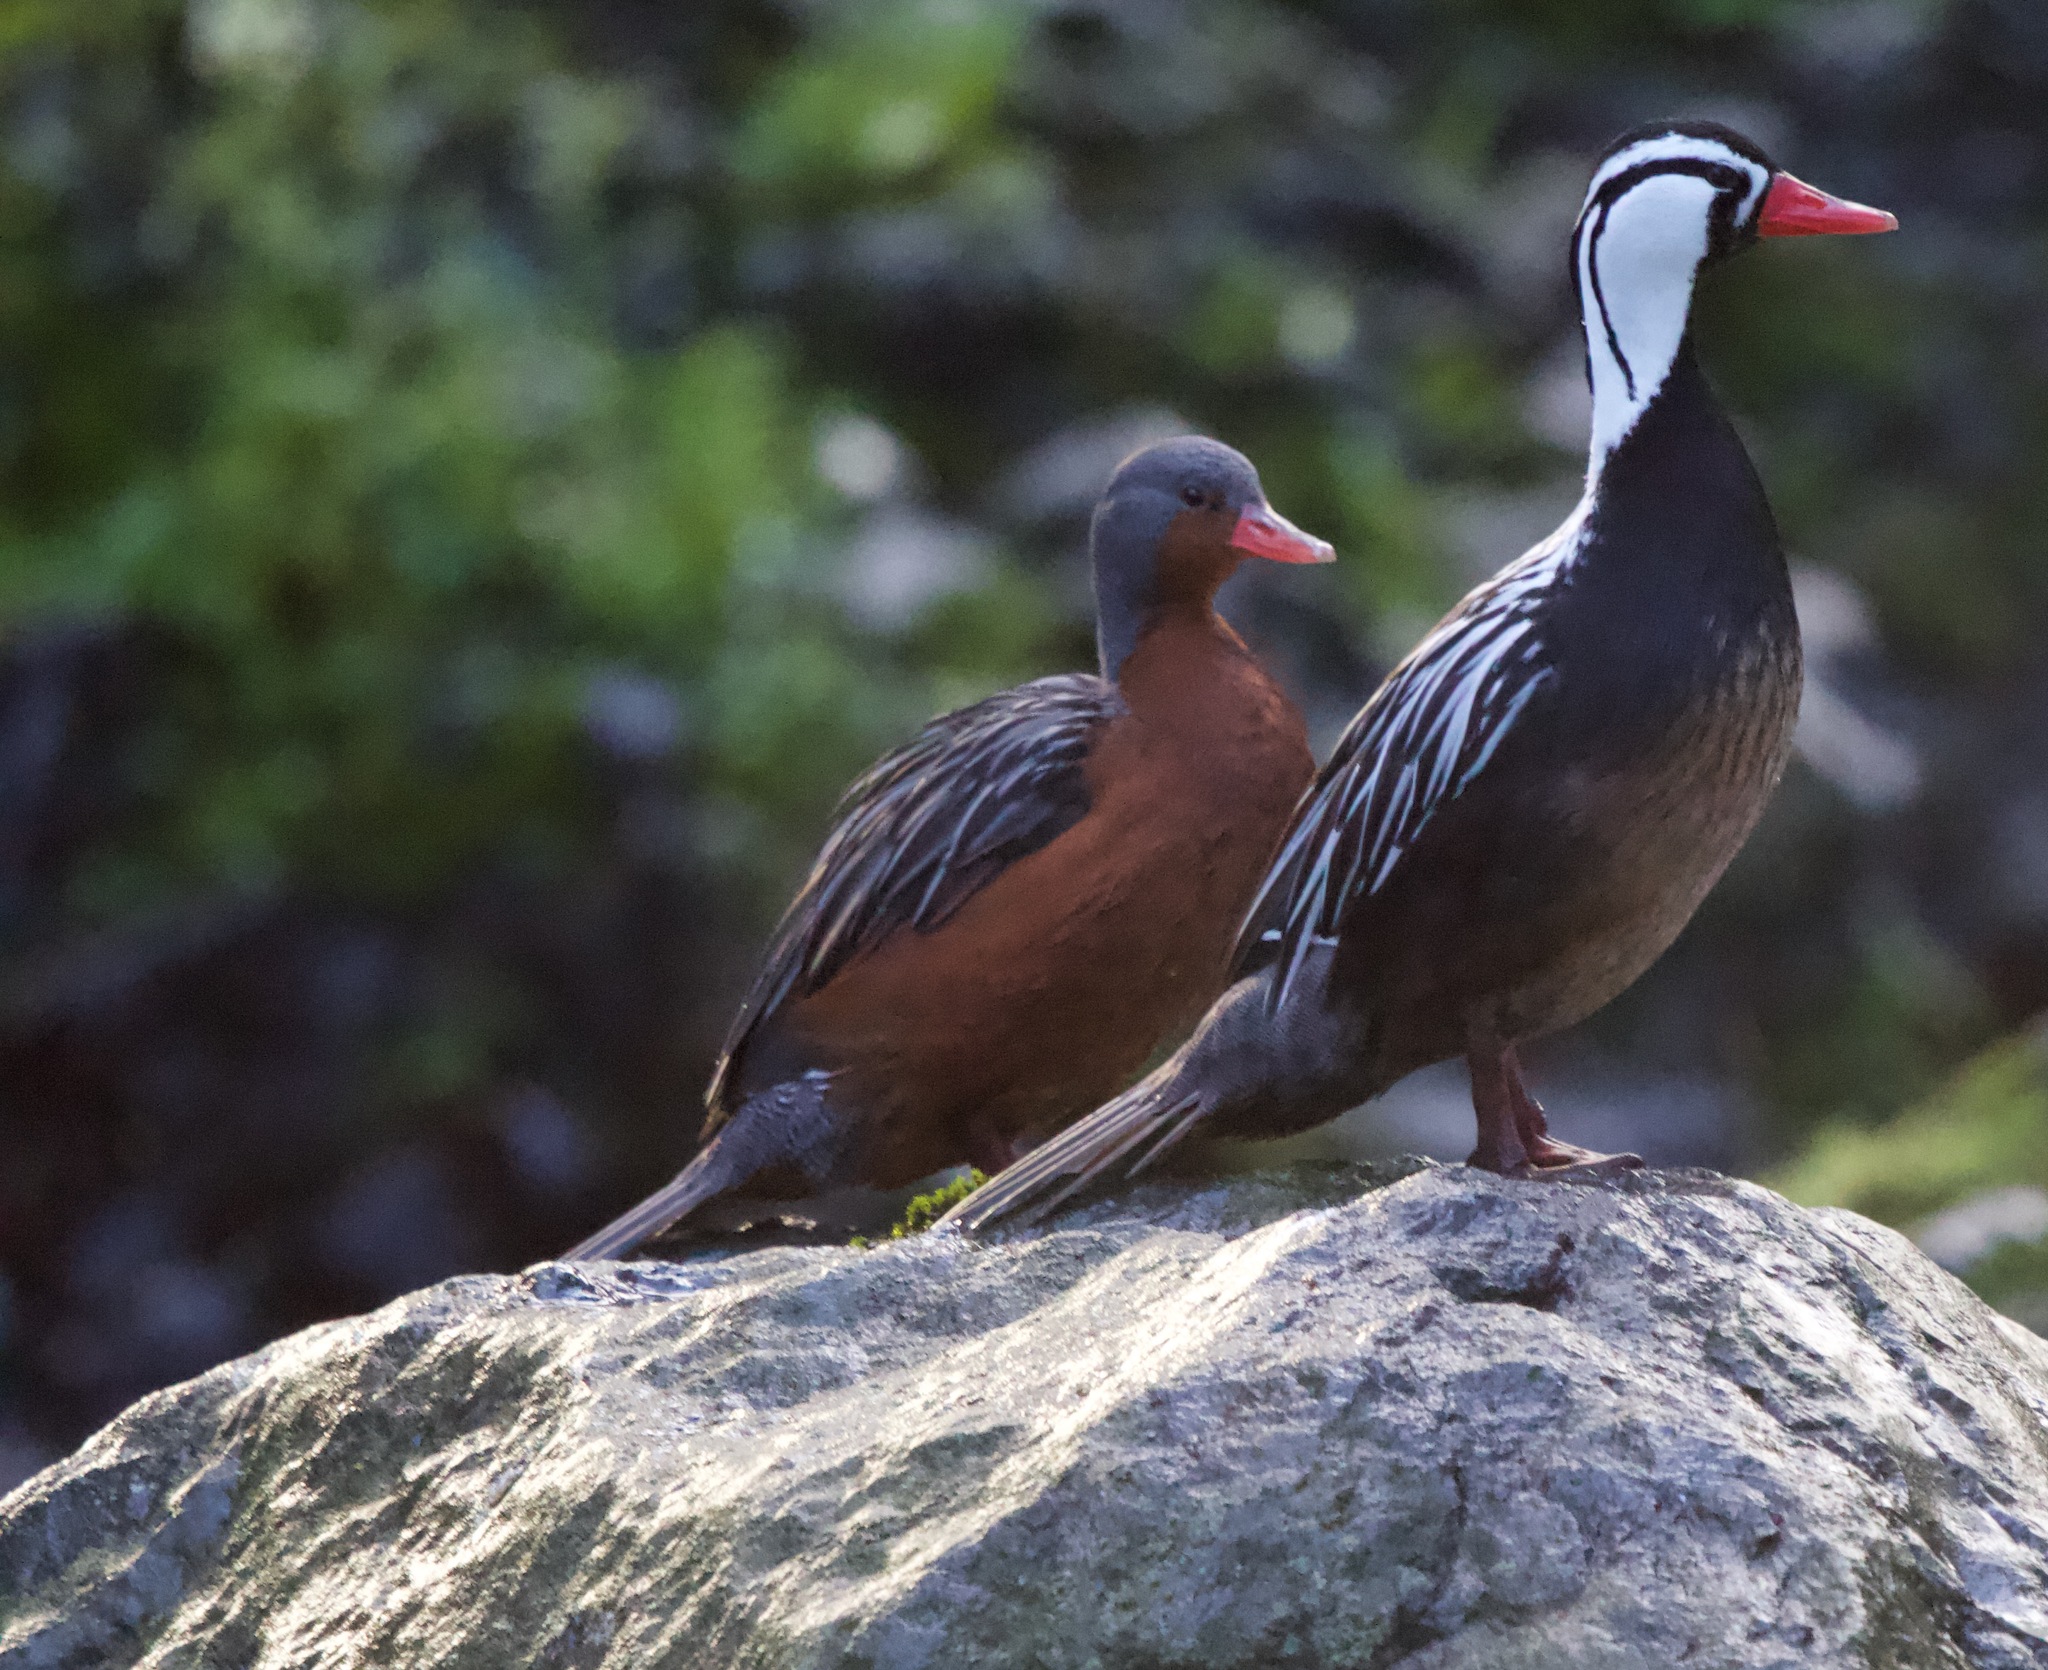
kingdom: Animalia
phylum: Chordata
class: Aves
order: Anseriformes
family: Anatidae
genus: Merganetta
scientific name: Merganetta armata
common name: Torrent duck
